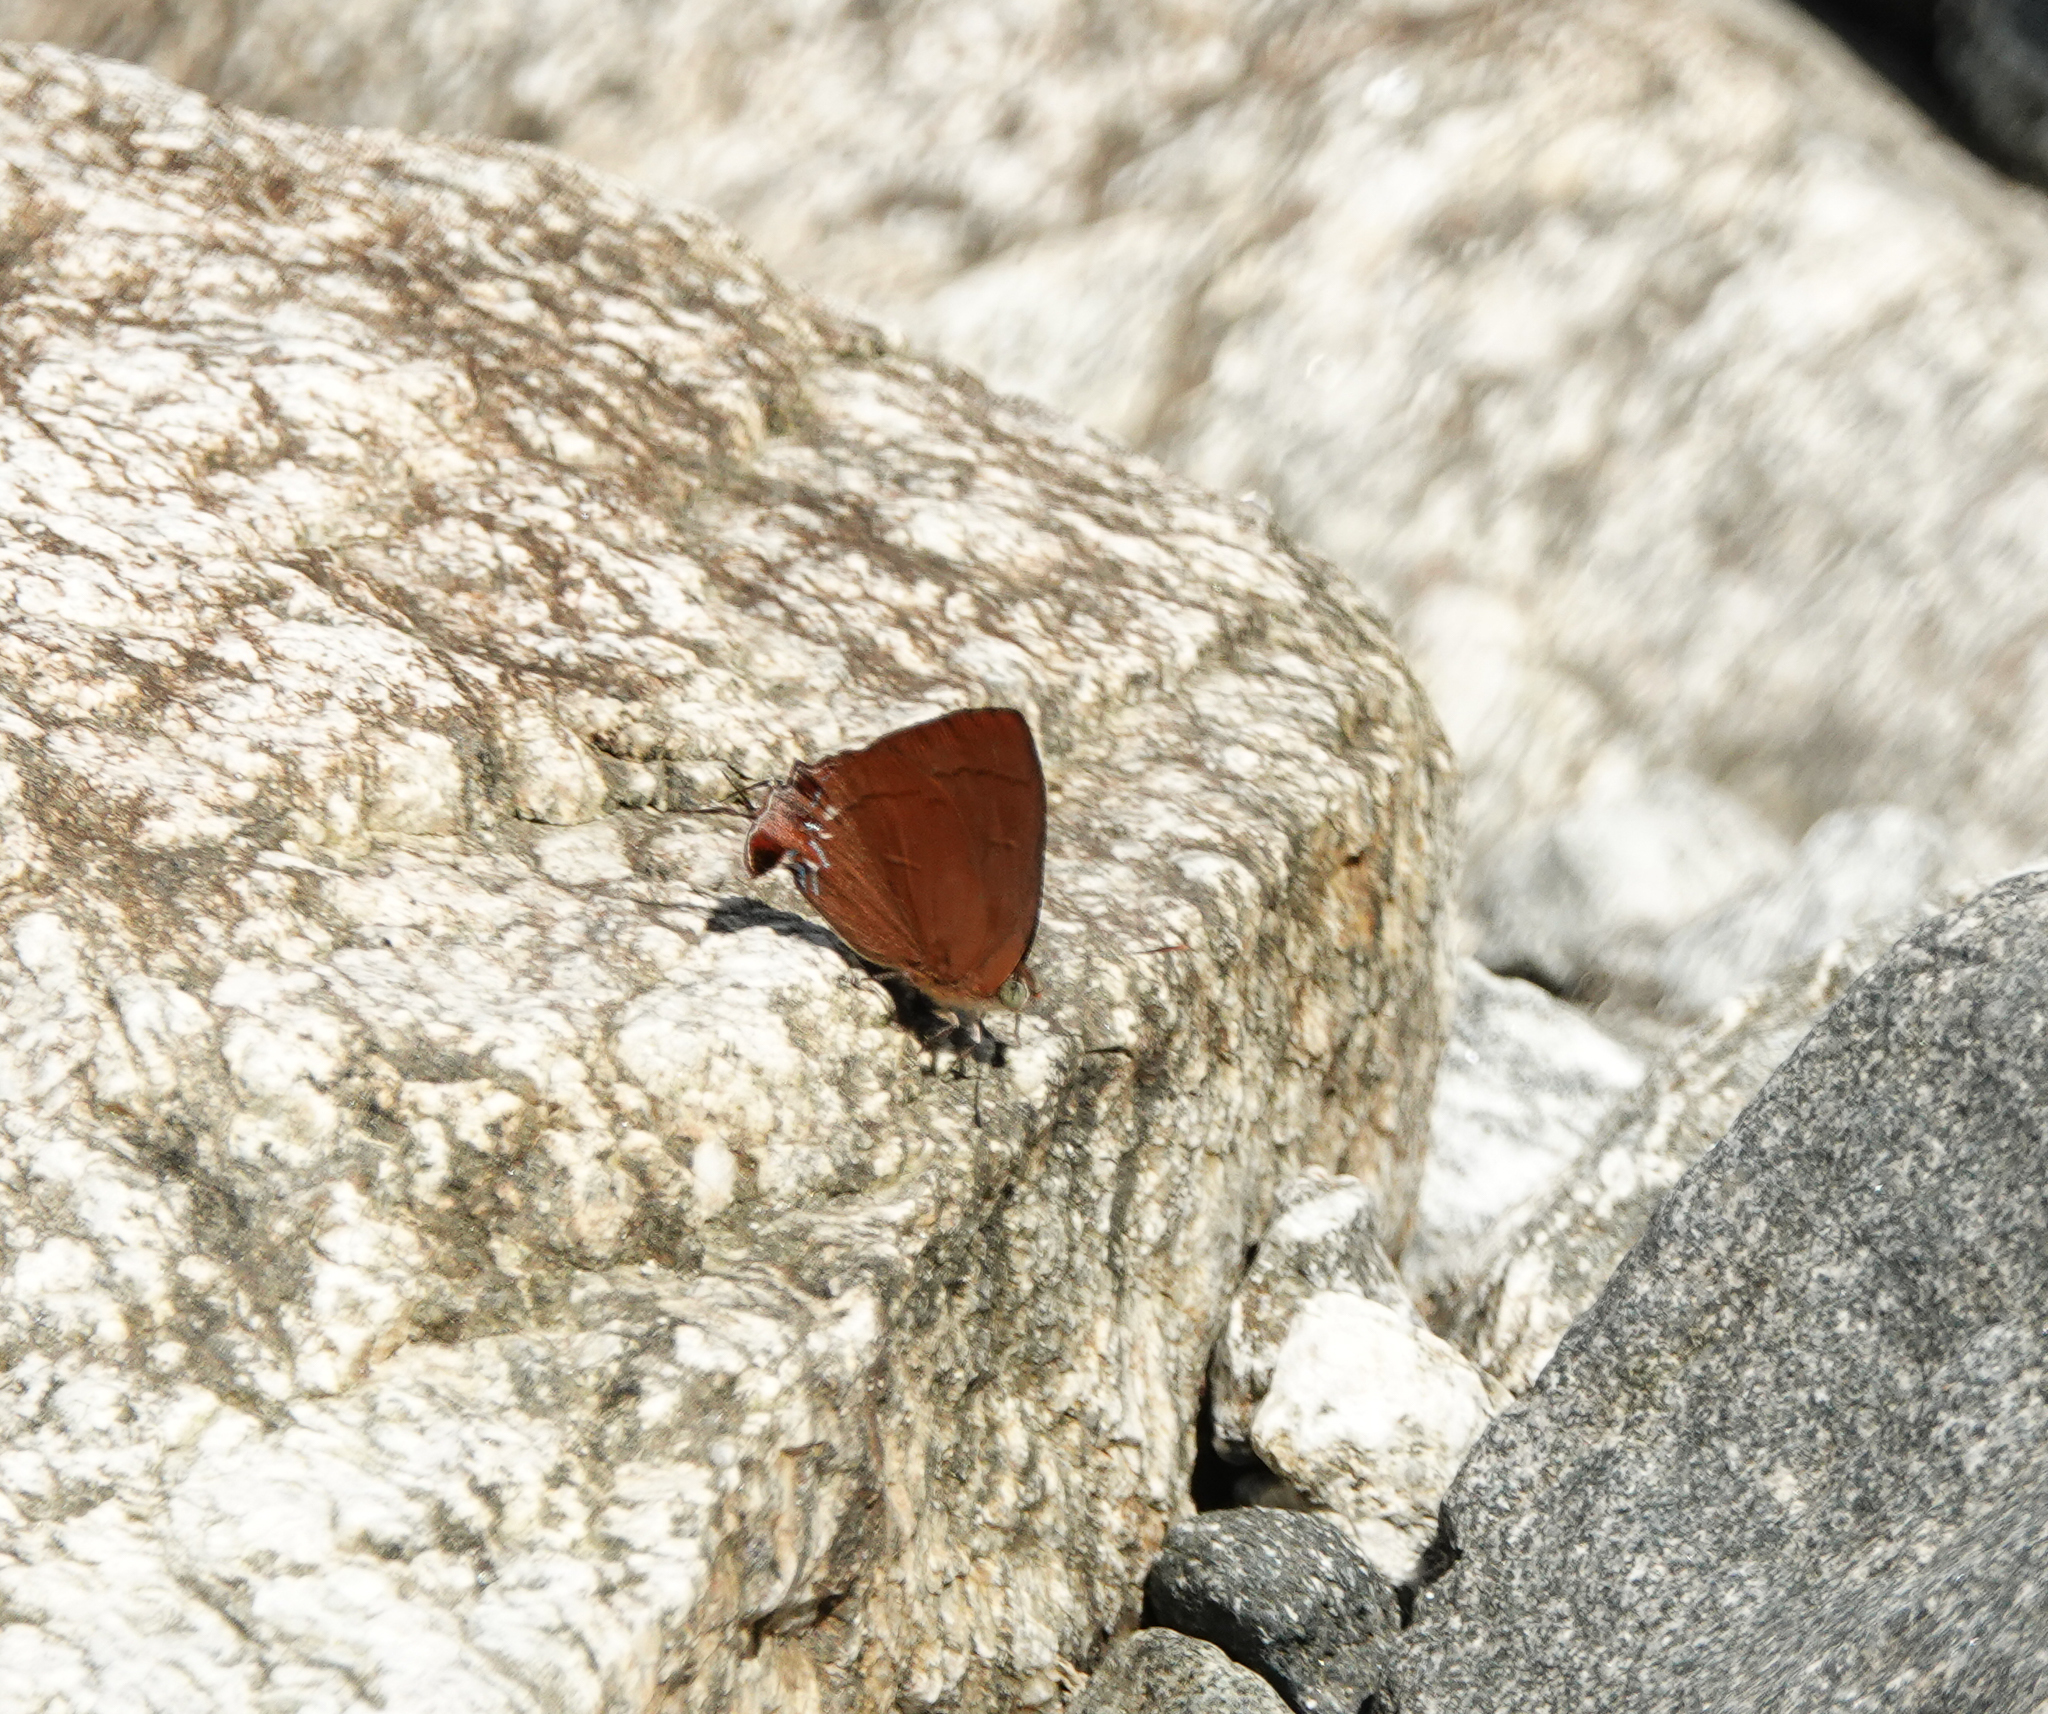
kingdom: Animalia
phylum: Arthropoda
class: Insecta
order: Lepidoptera
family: Lycaenidae
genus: Remelana
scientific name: Remelana jangala
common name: Chocolate royal
